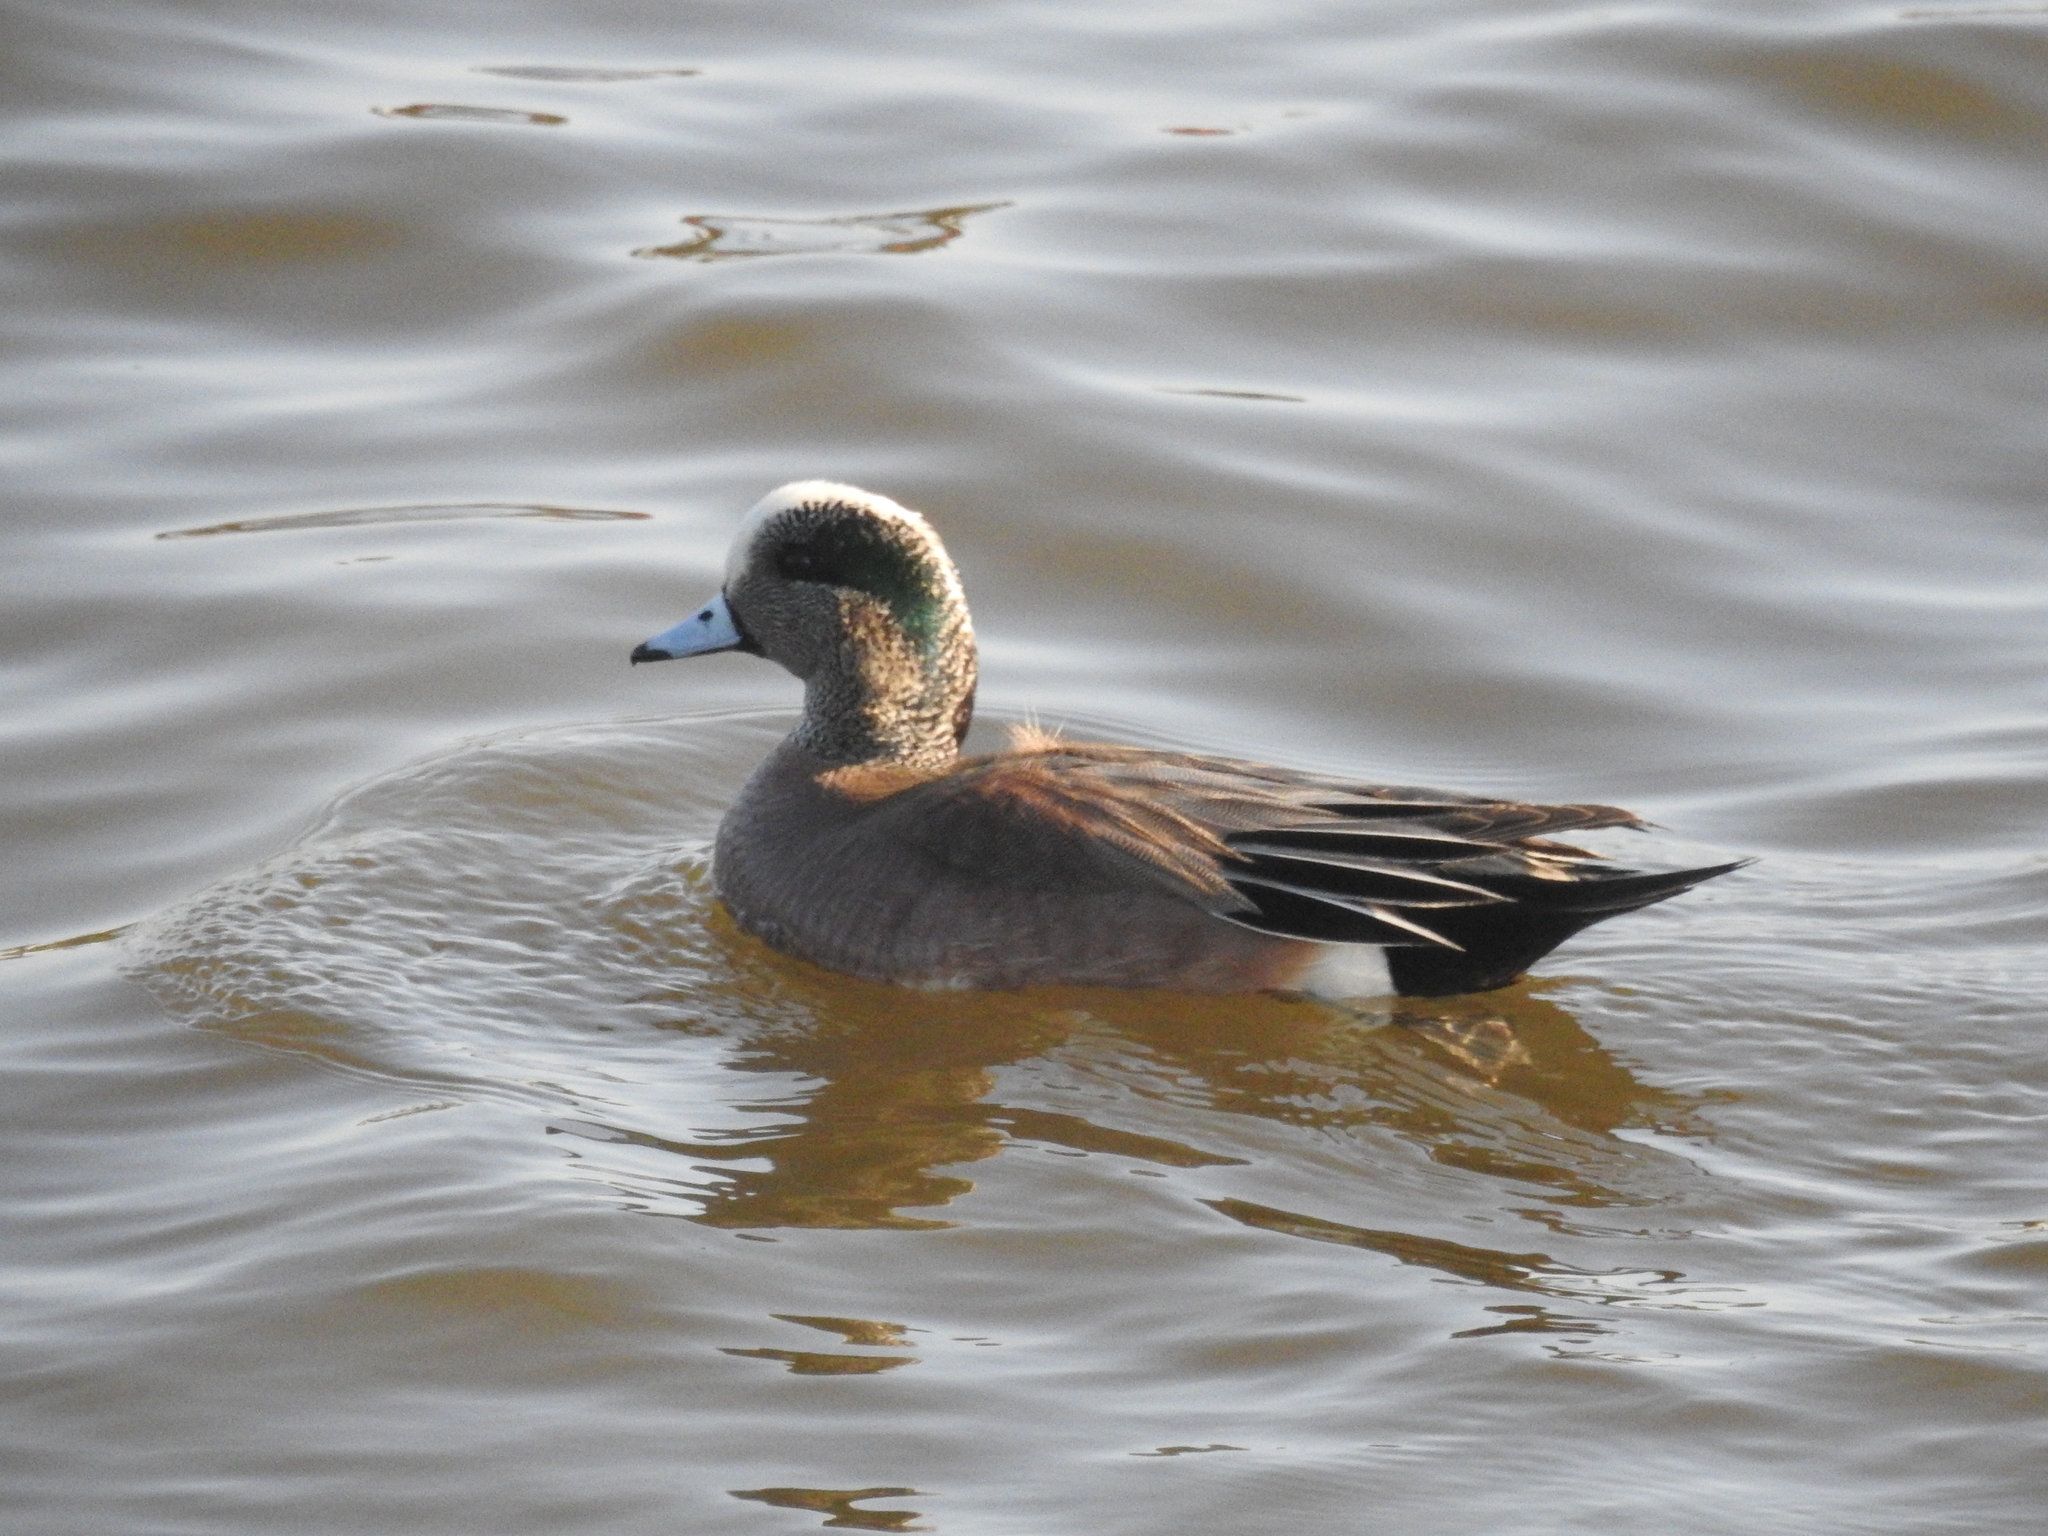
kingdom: Animalia
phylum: Chordata
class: Aves
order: Anseriformes
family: Anatidae
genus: Mareca
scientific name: Mareca americana
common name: American wigeon
